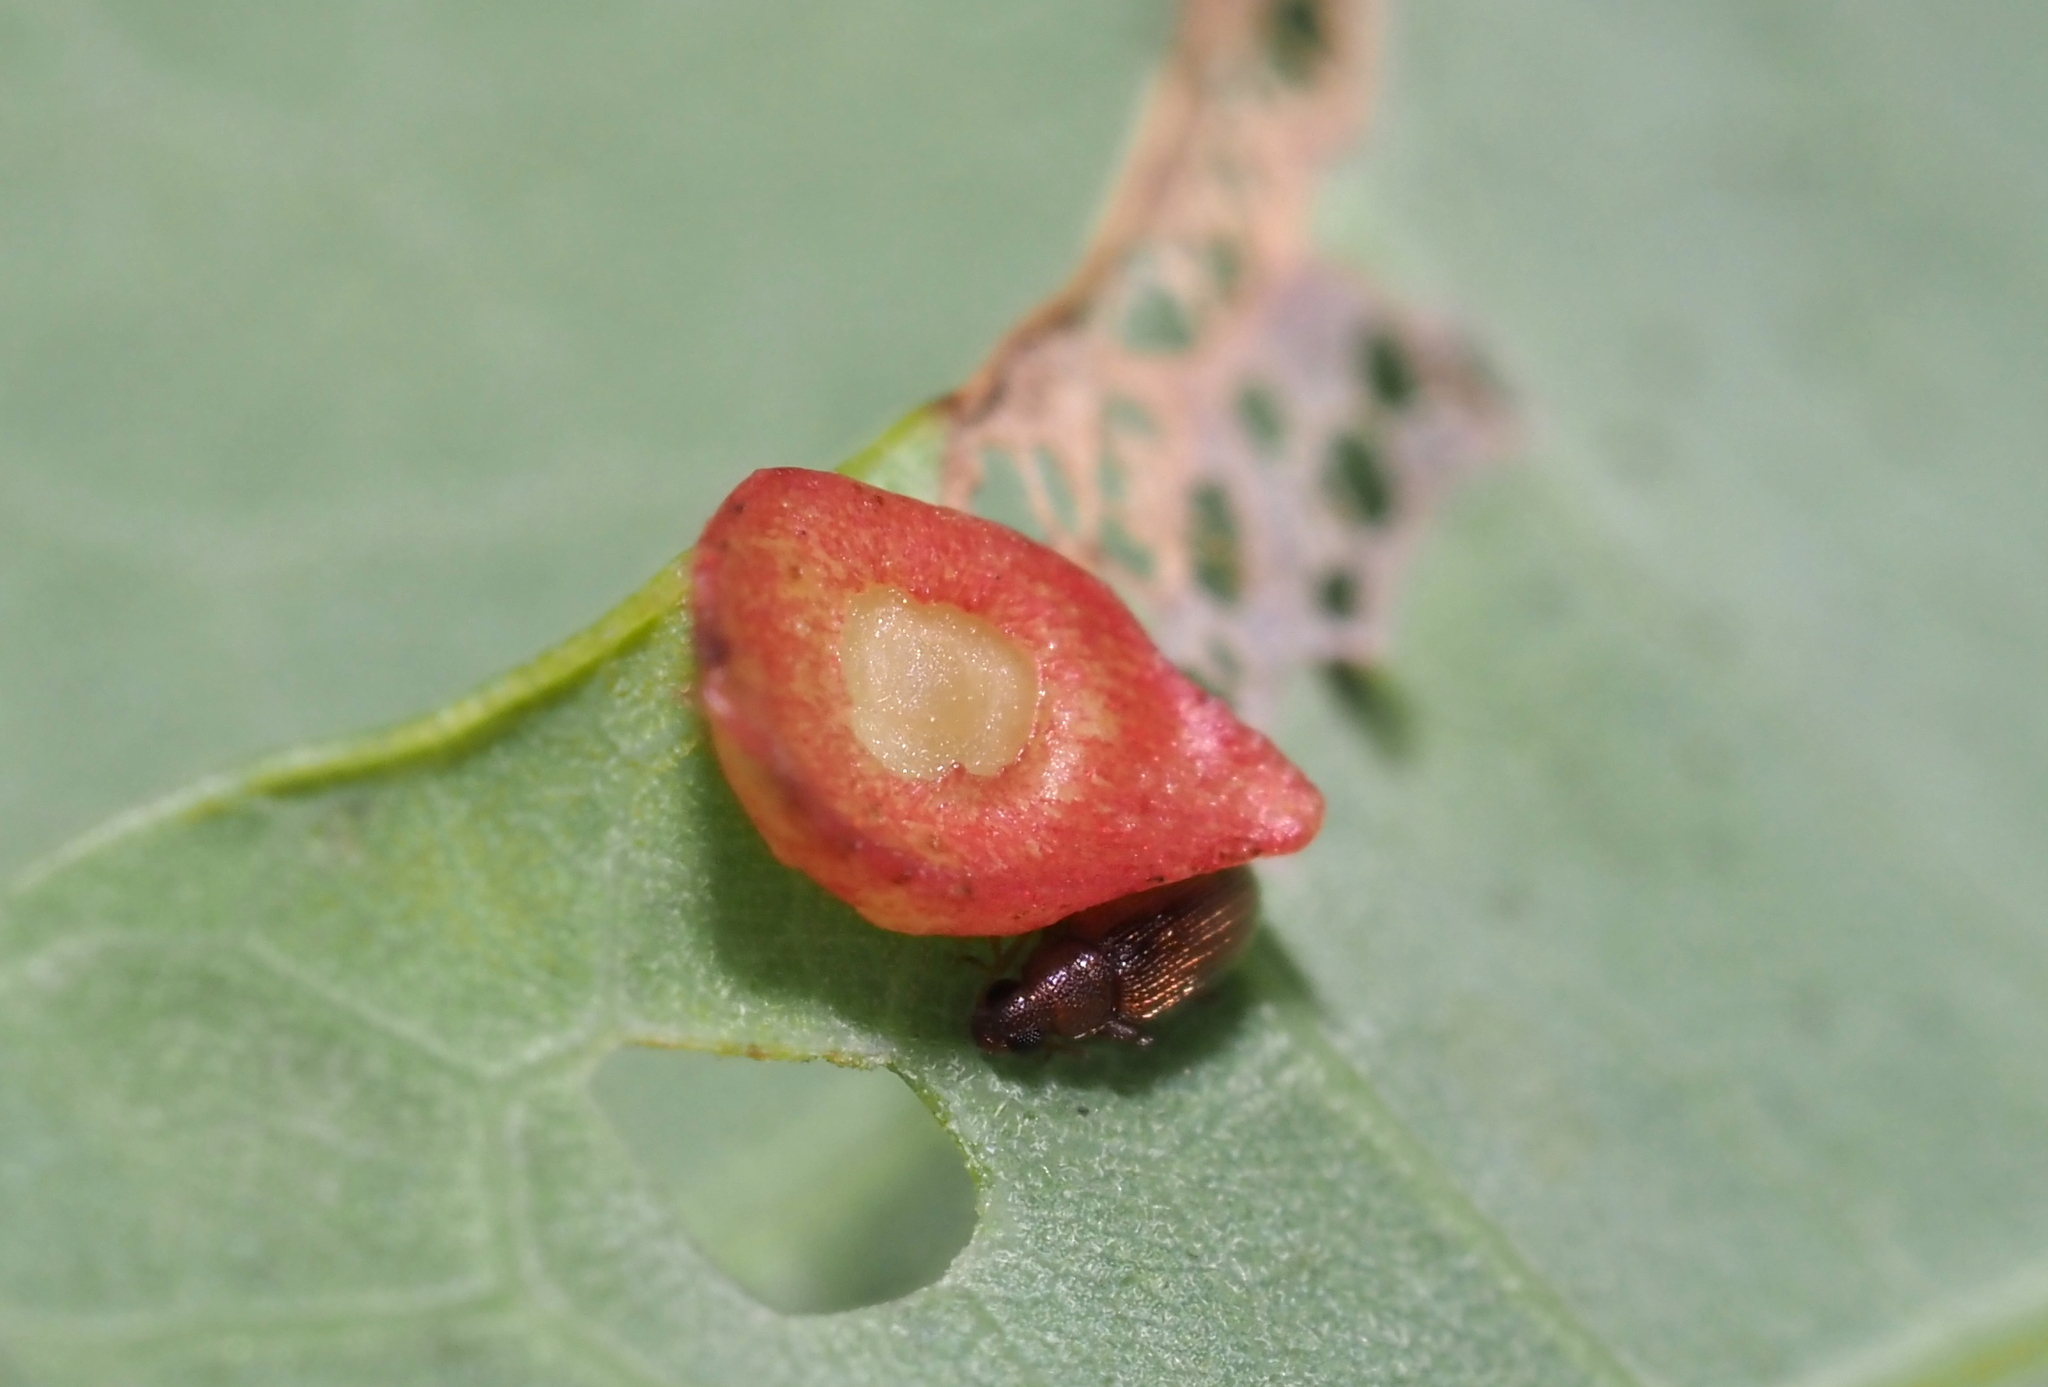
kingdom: Animalia
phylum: Arthropoda
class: Insecta
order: Hymenoptera
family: Cynipidae
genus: Phylloteras
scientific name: Phylloteras
